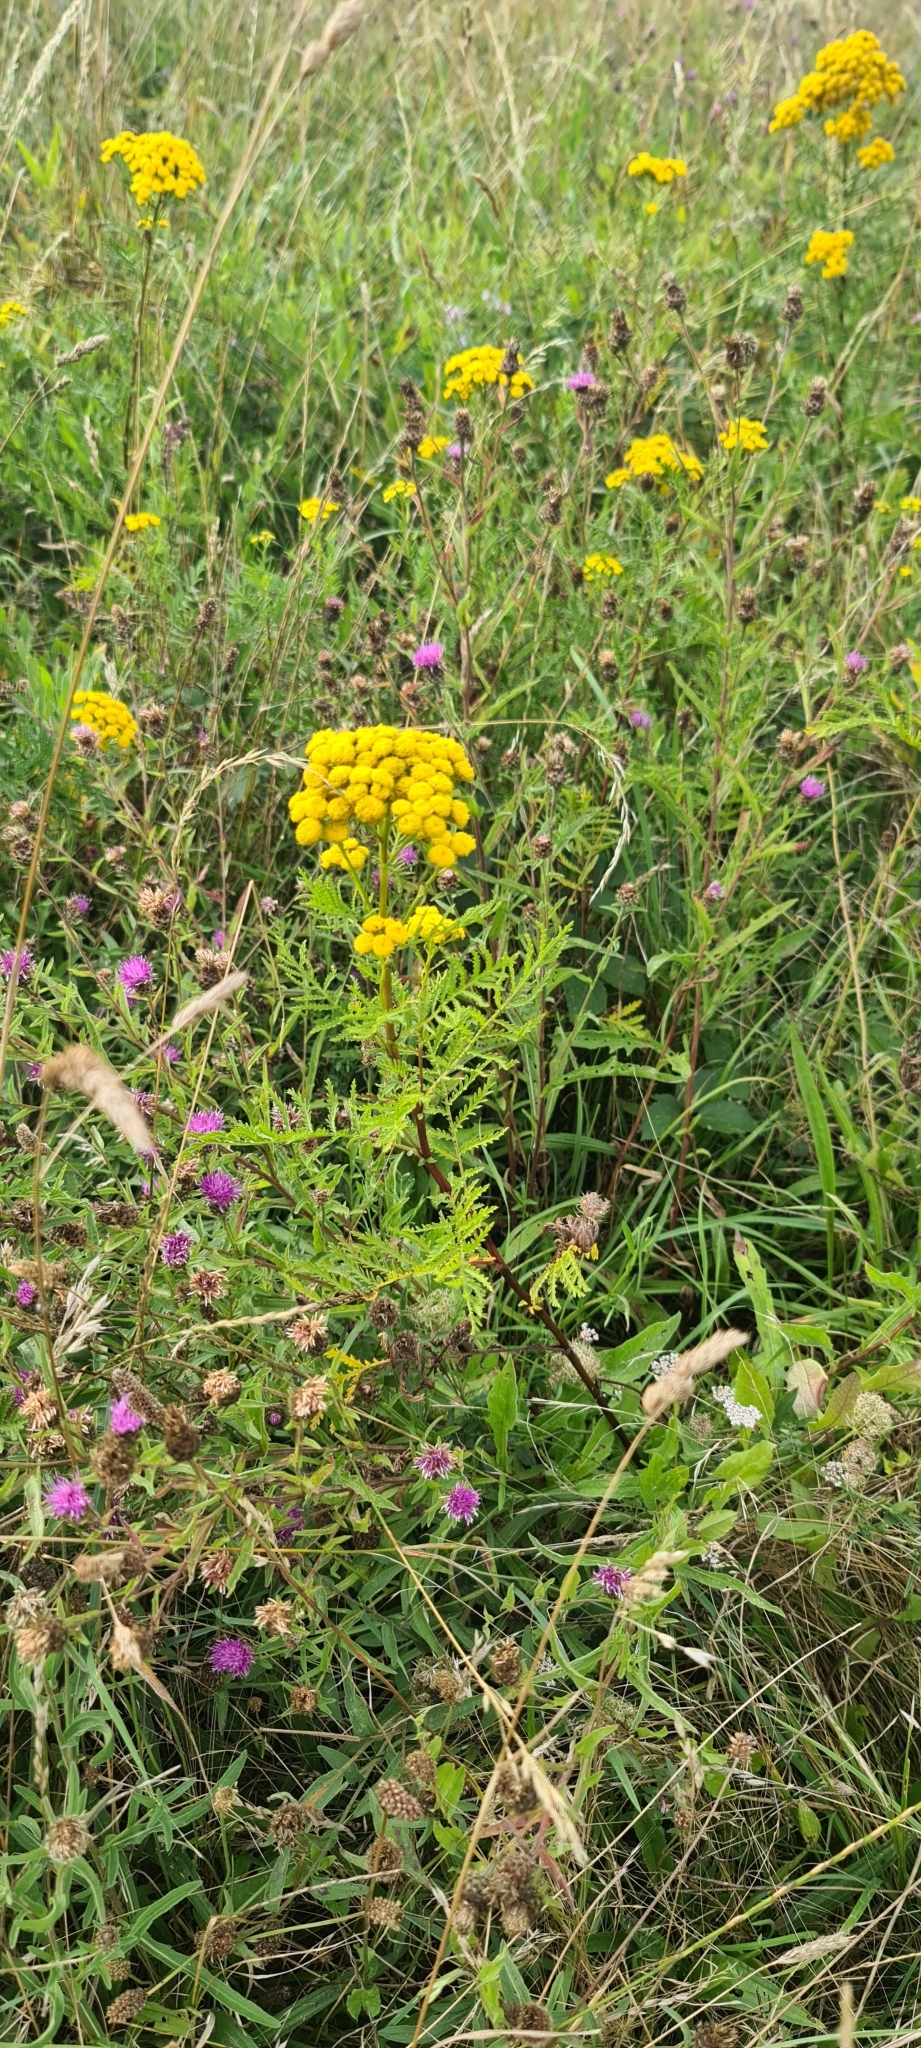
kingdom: Plantae
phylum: Tracheophyta
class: Magnoliopsida
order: Asterales
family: Asteraceae
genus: Tanacetum
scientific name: Tanacetum vulgare
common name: Common tansy
